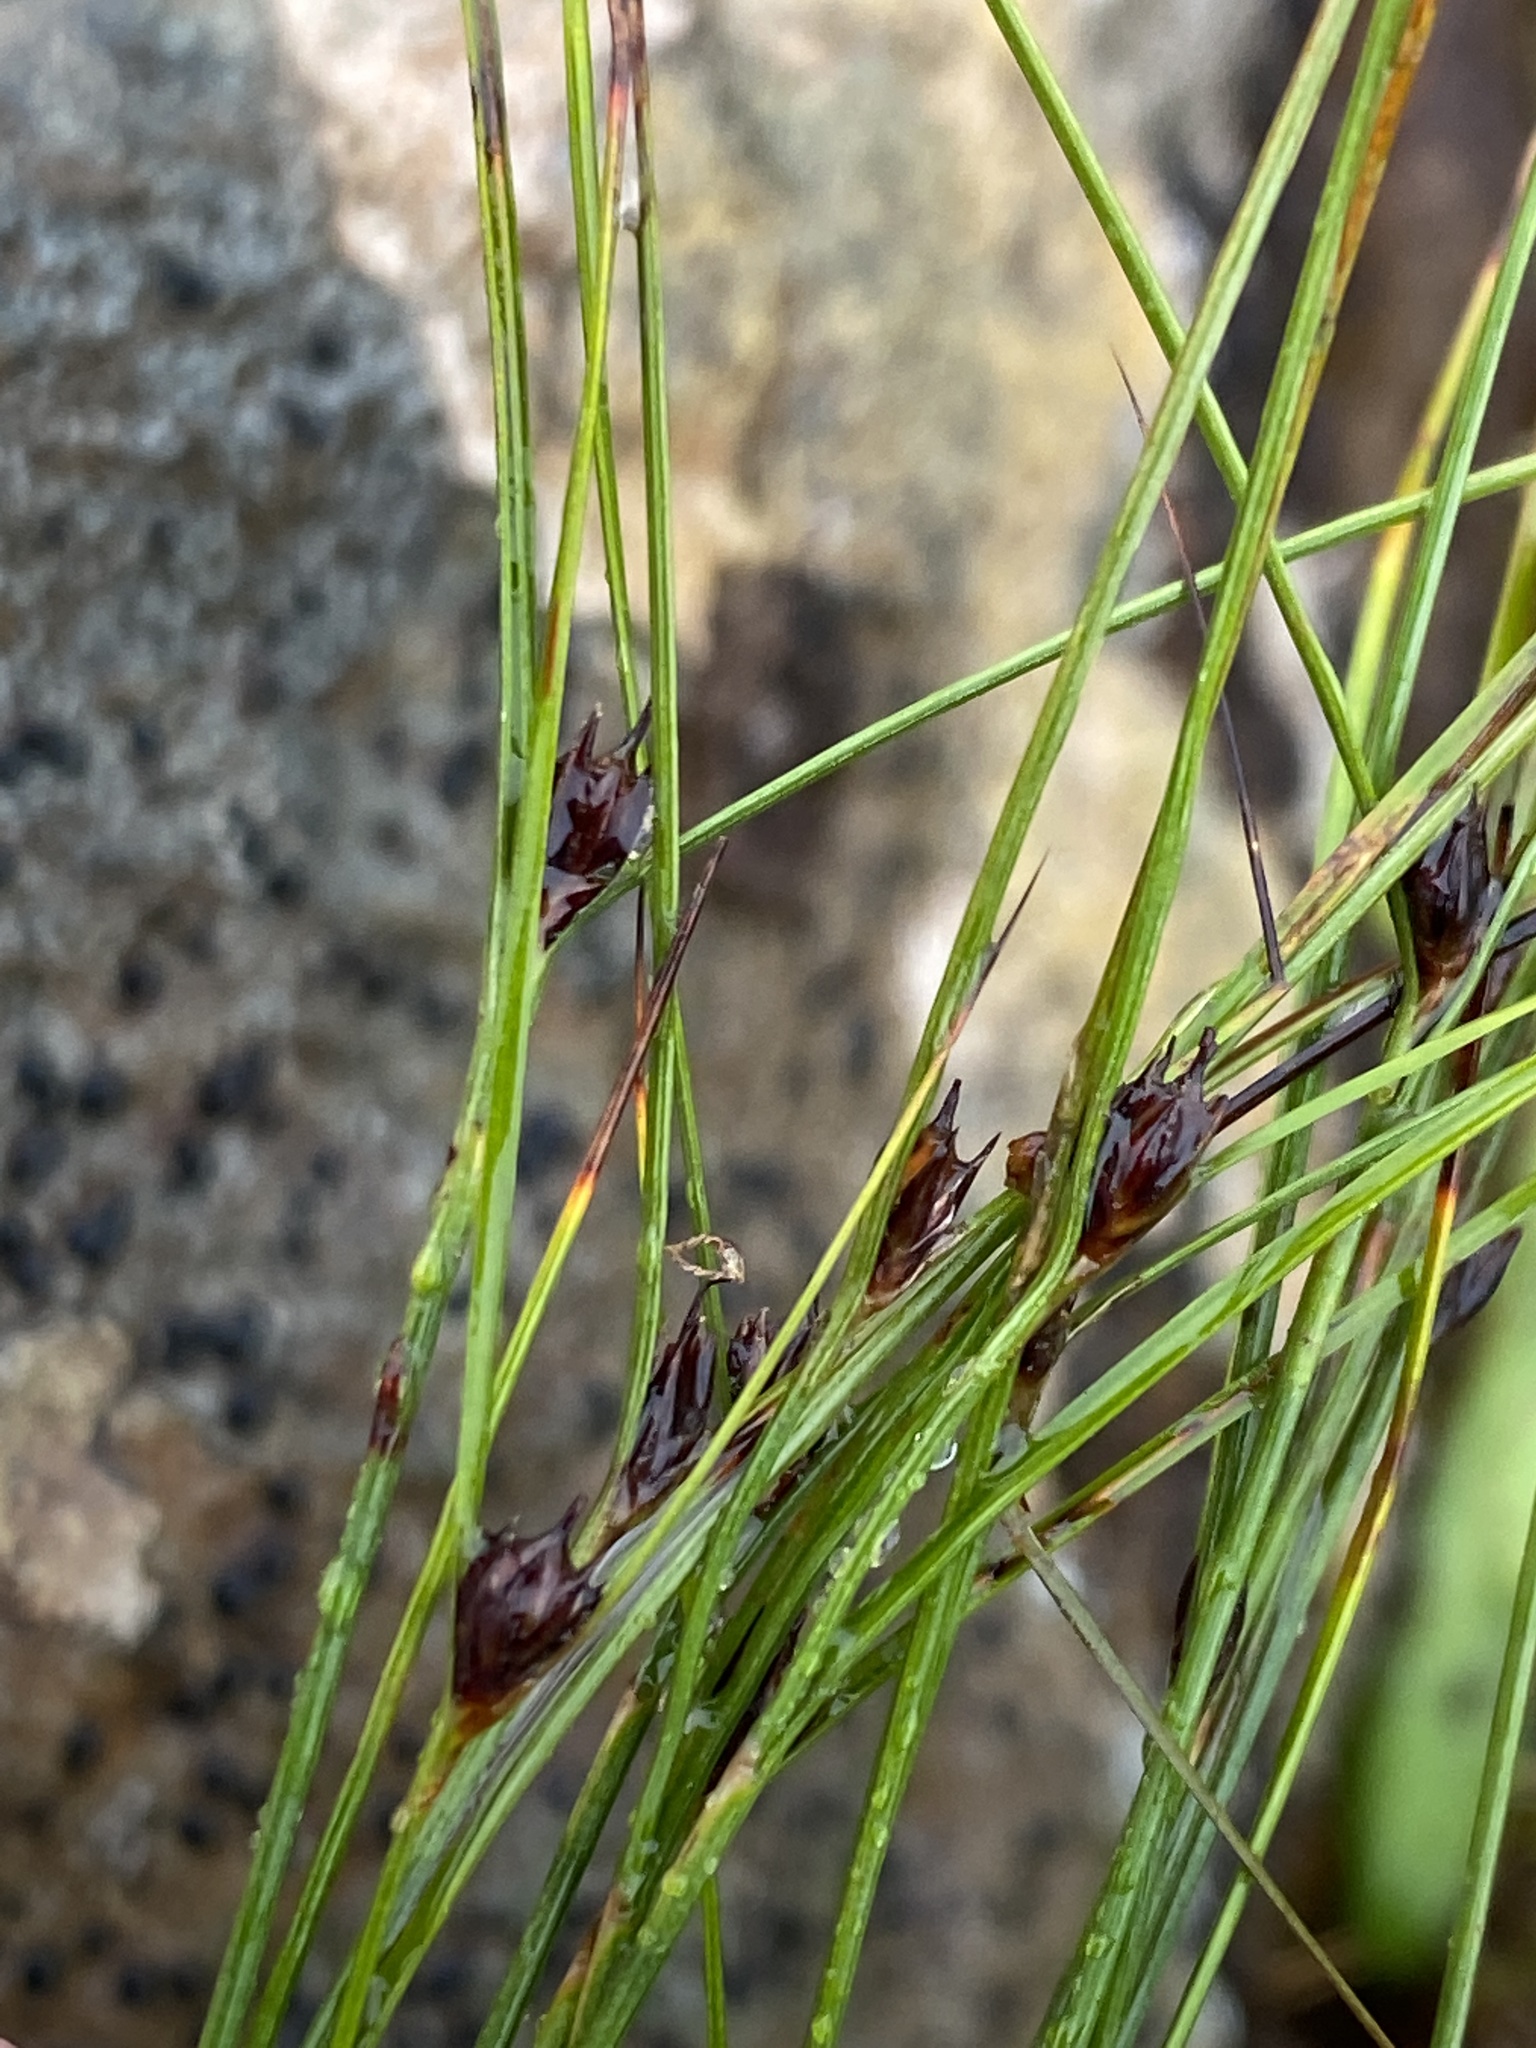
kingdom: Plantae
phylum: Tracheophyta
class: Liliopsida
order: Poales
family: Juncaceae
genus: Oreojuncus
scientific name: Oreojuncus trifidus
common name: Highland rush
